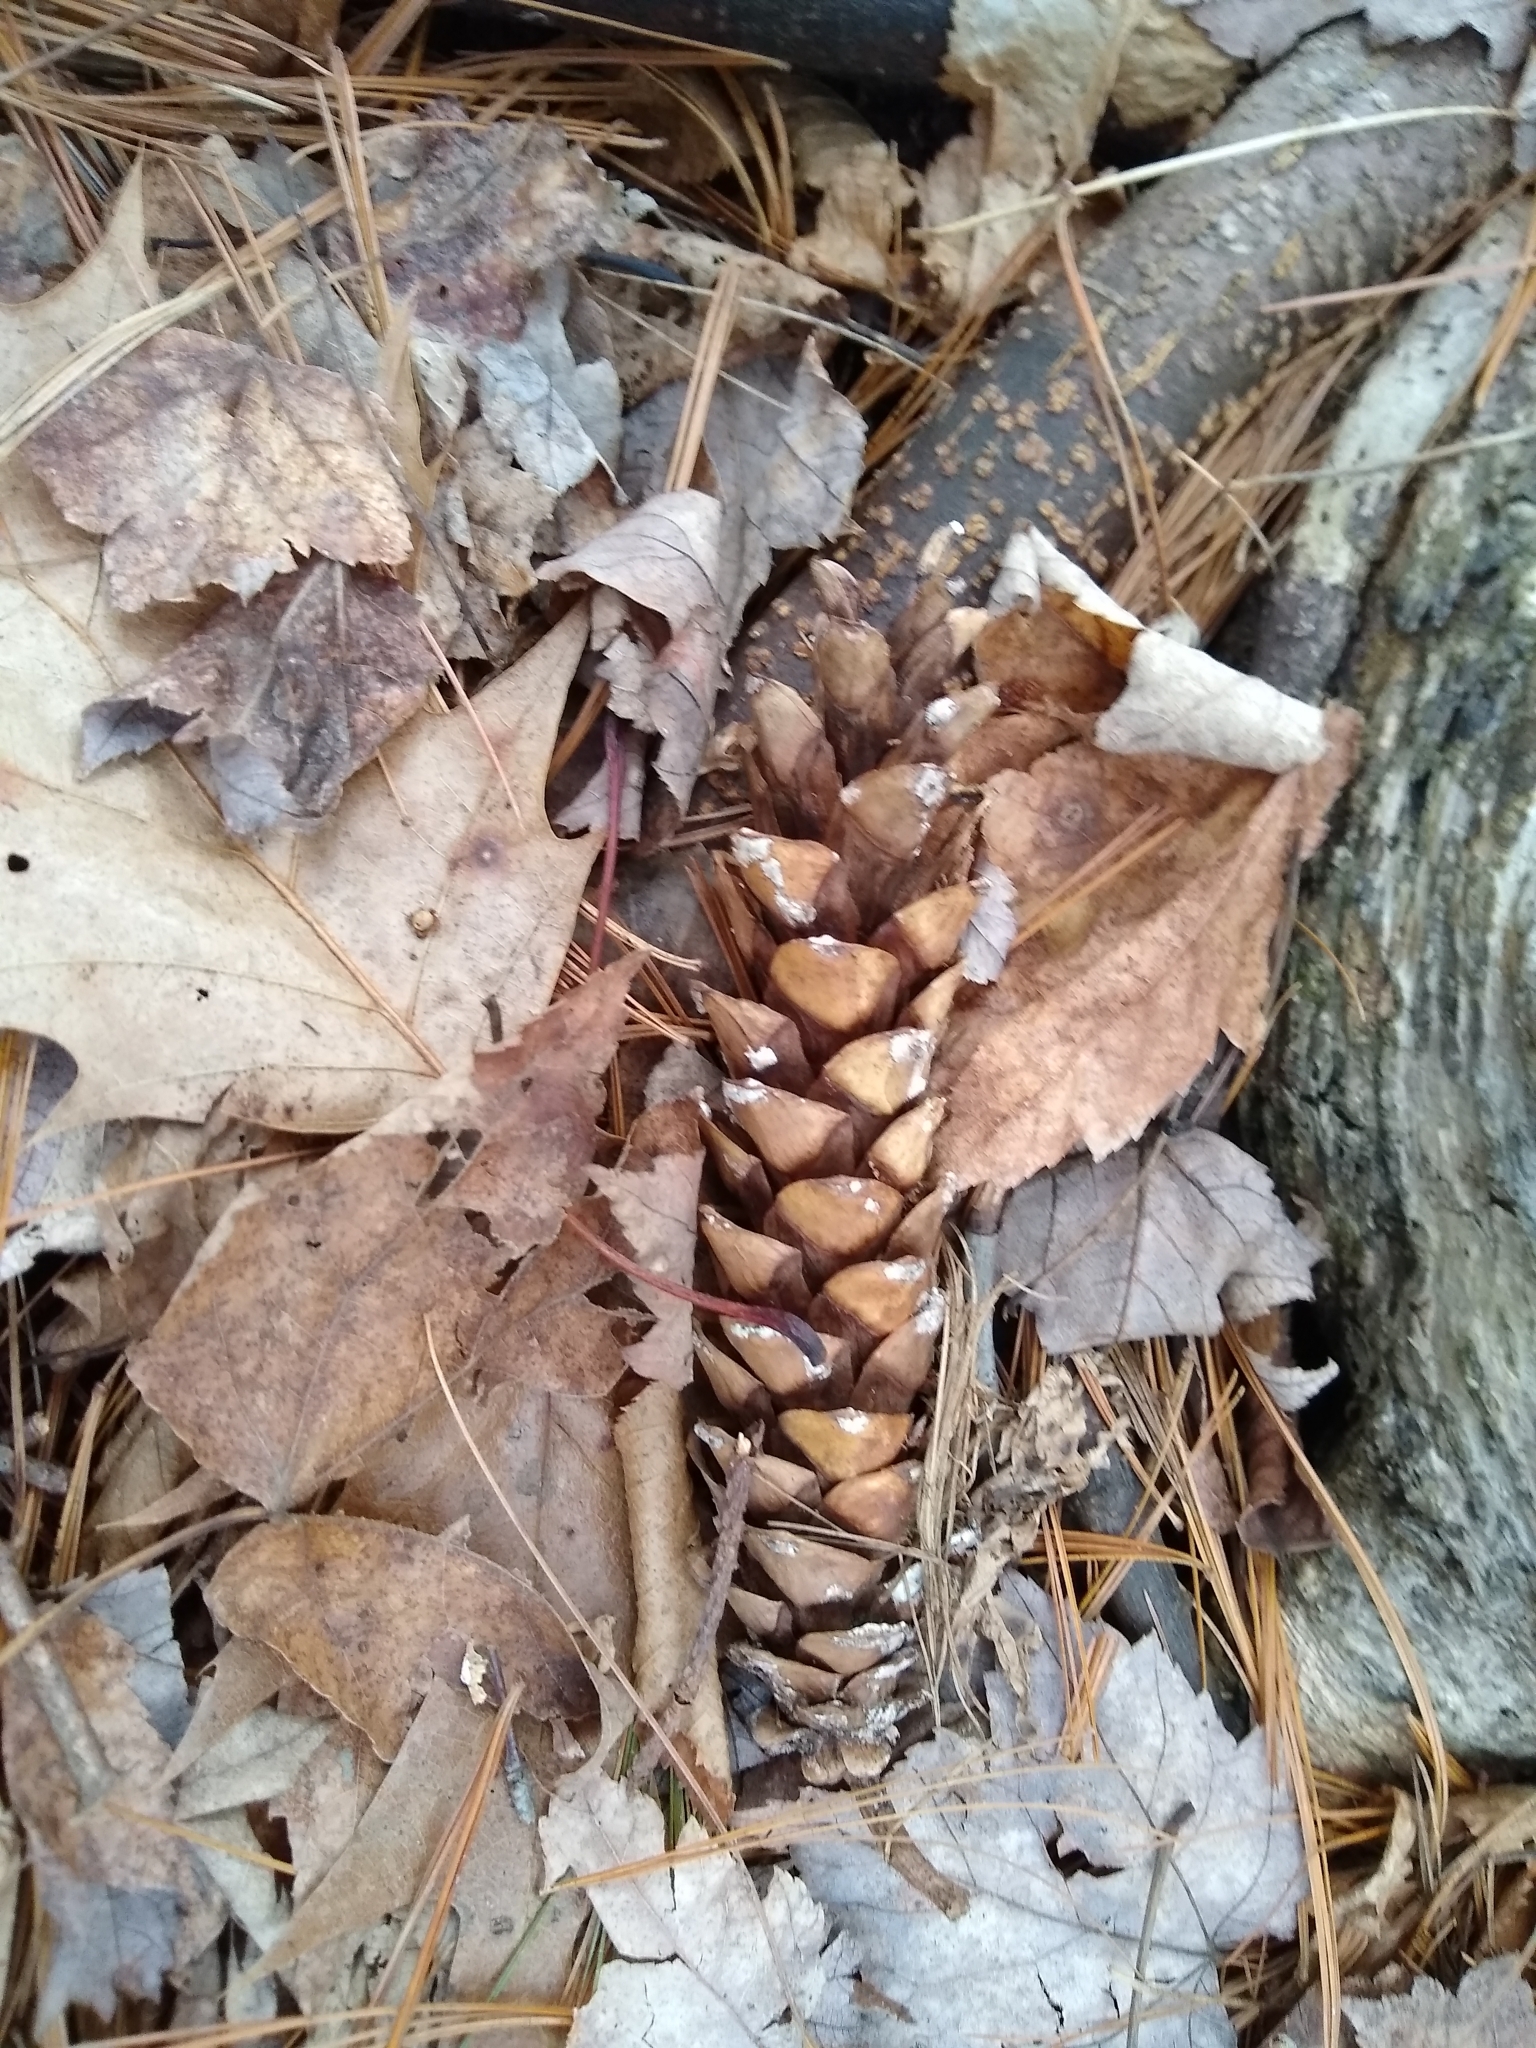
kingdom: Plantae
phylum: Tracheophyta
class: Pinopsida
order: Pinales
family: Pinaceae
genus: Pinus
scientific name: Pinus strobus
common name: Weymouth pine
